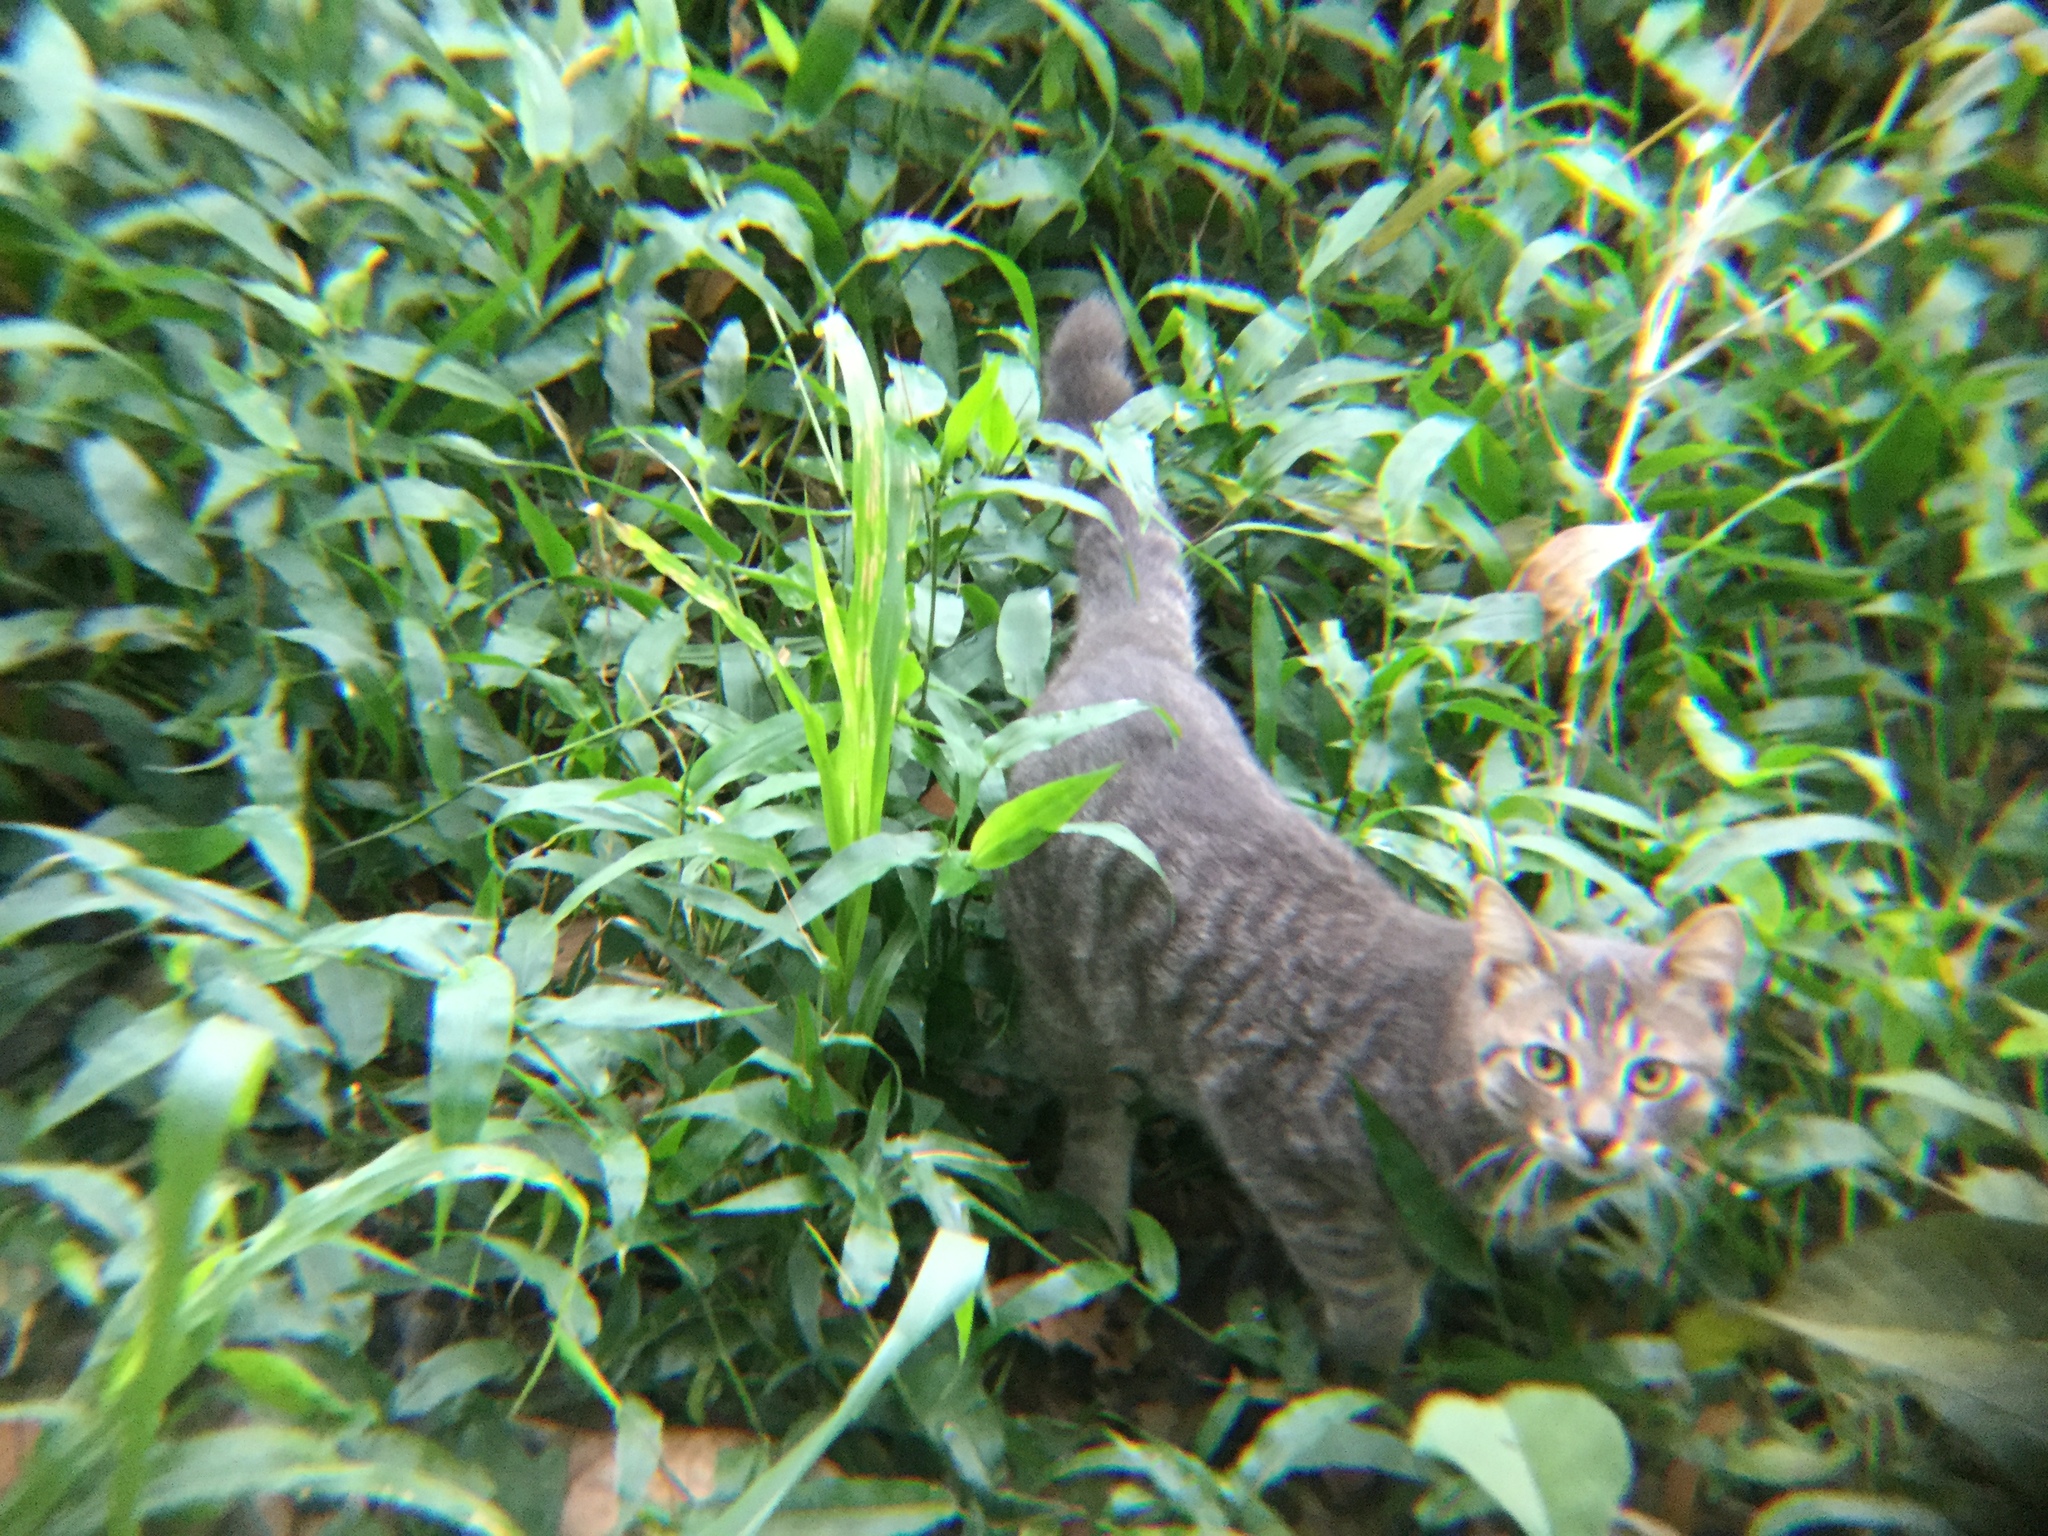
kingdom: Animalia
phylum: Chordata
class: Mammalia
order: Carnivora
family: Felidae
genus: Felis
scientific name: Felis catus
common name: Domestic cat
